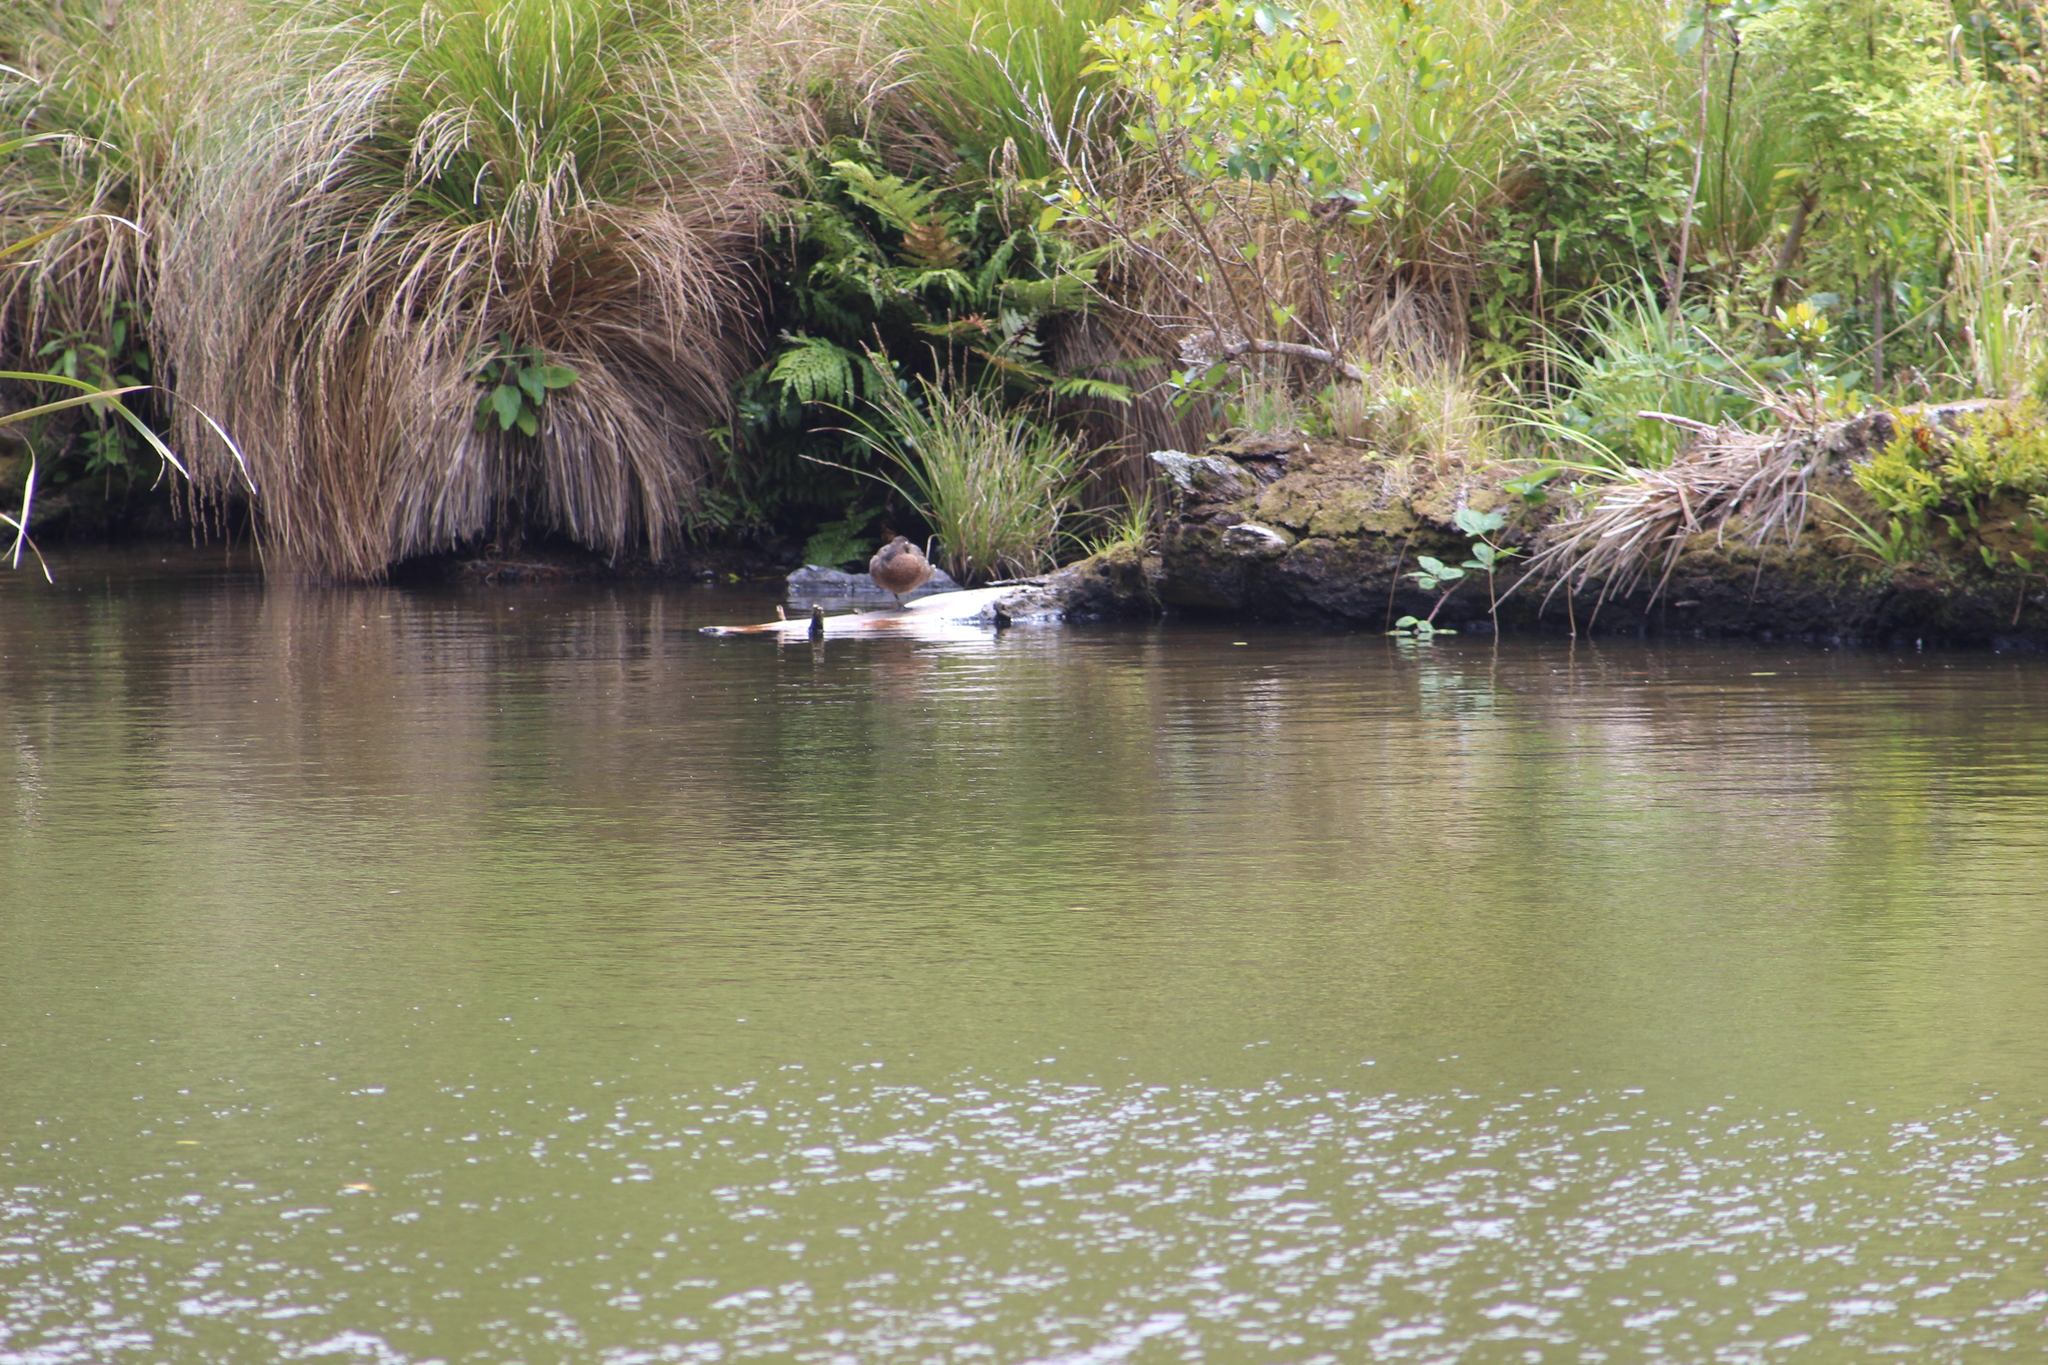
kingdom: Animalia
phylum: Chordata
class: Aves
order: Anseriformes
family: Anatidae
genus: Anas
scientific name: Anas chlorotis
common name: Brown teal
